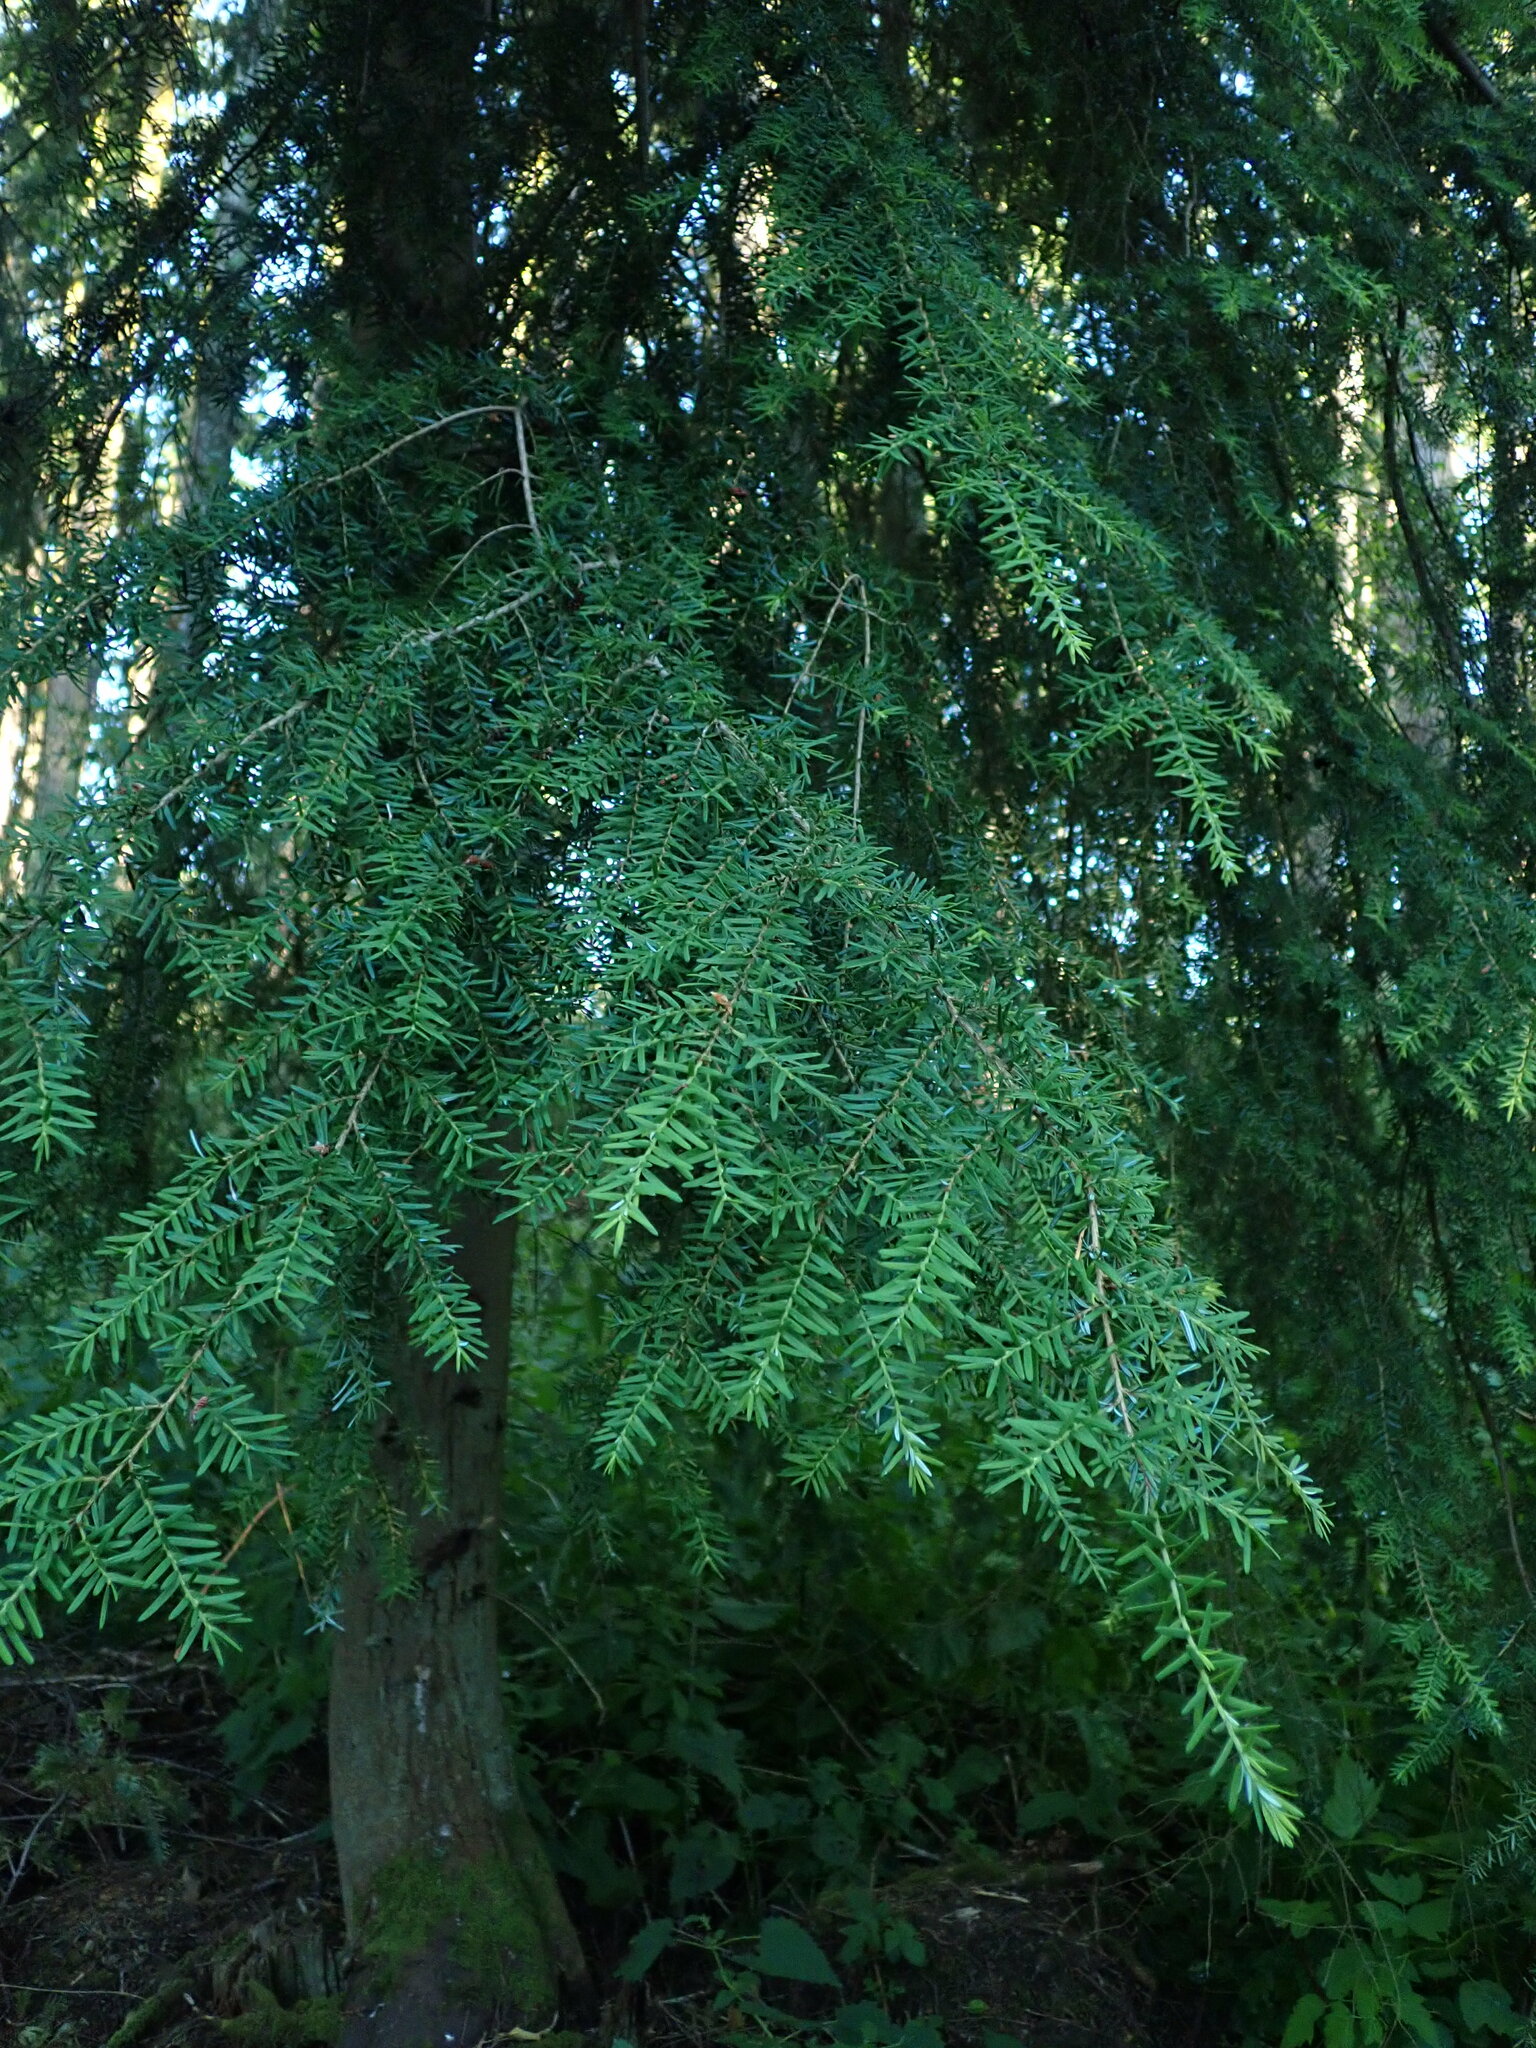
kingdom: Plantae
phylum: Tracheophyta
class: Pinopsida
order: Pinales
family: Pinaceae
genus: Tsuga
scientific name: Tsuga heterophylla
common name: Western hemlock
